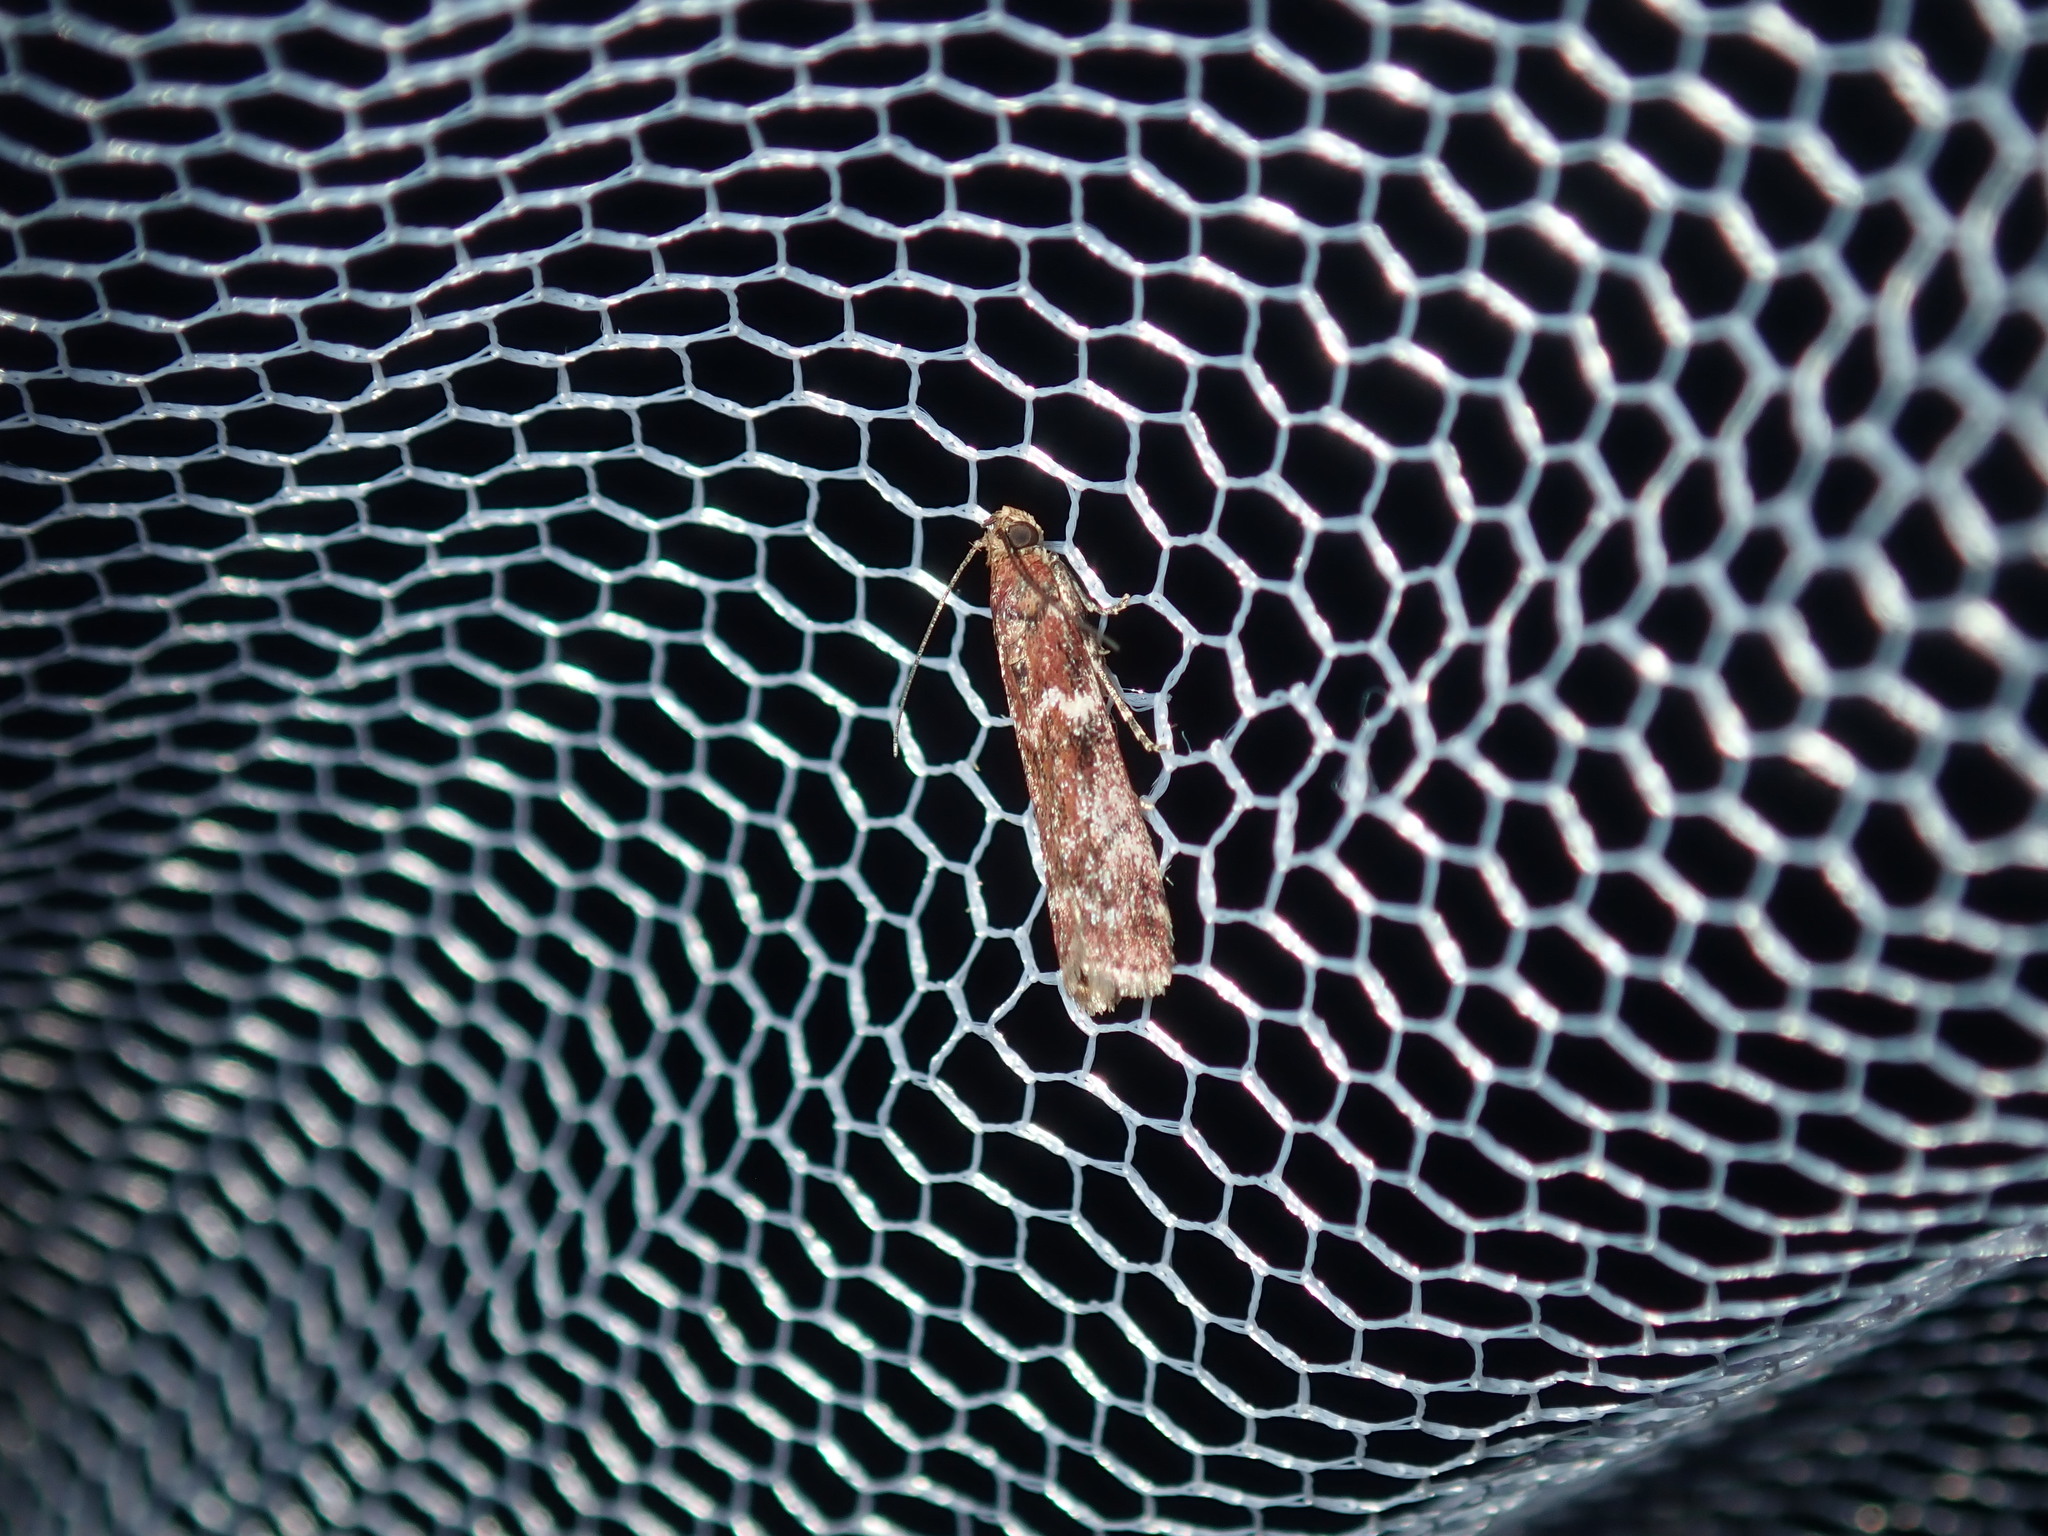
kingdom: Animalia
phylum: Arthropoda
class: Insecta
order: Lepidoptera
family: Pyralidae
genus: Ephestiopsis
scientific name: Ephestiopsis oenobarella
